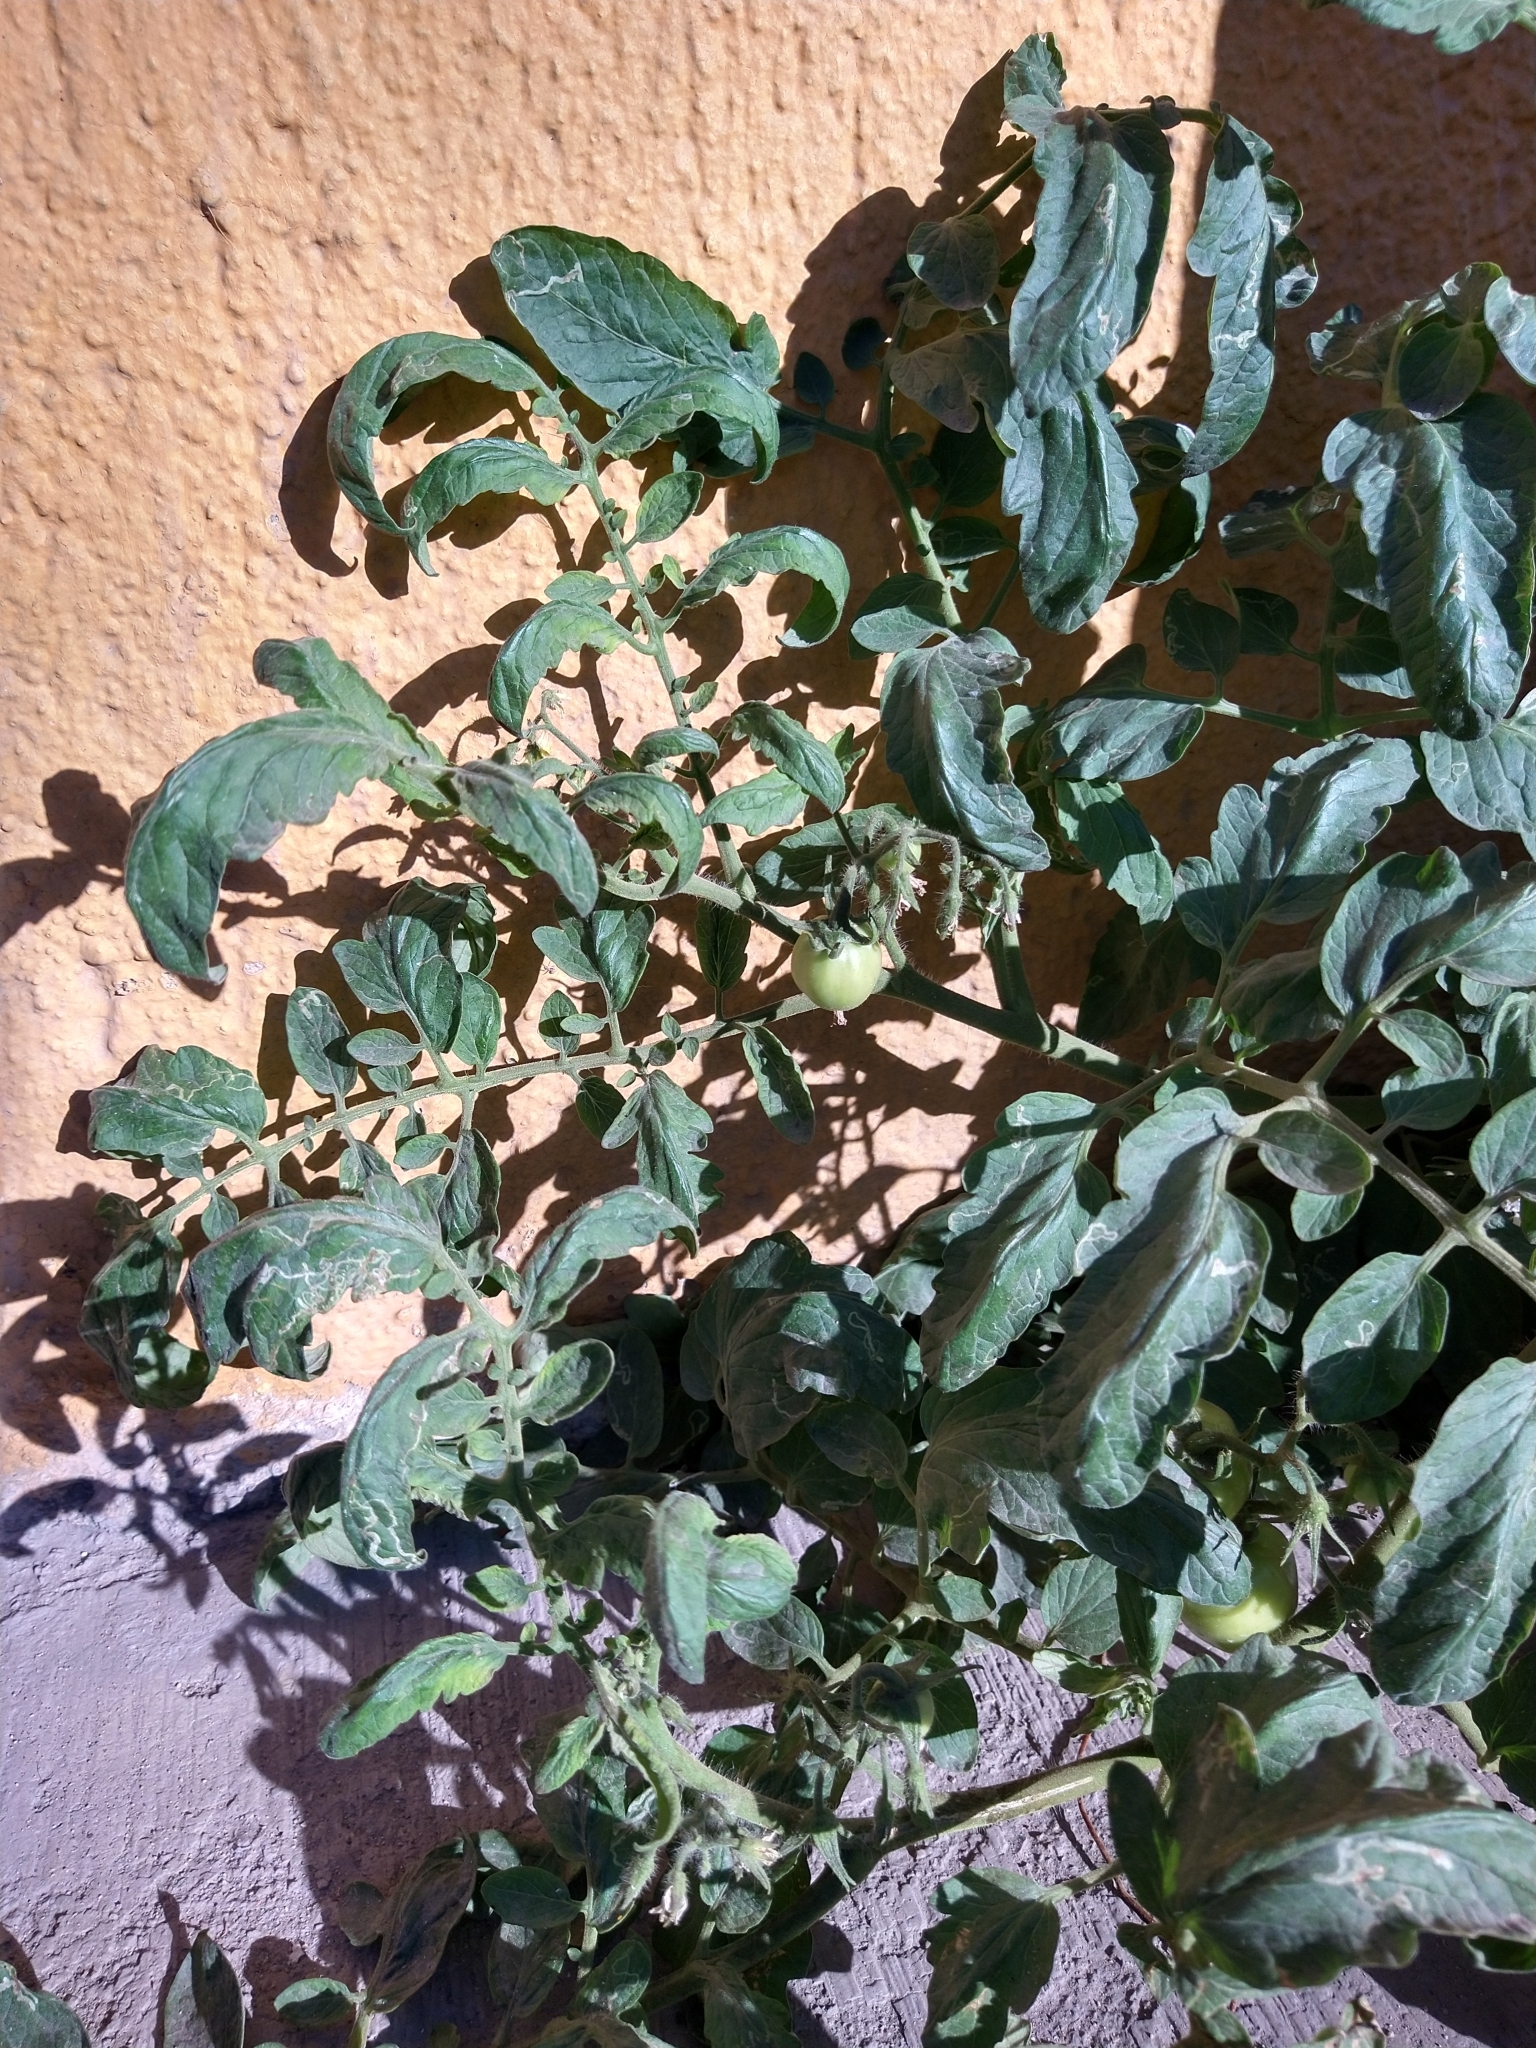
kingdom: Plantae
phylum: Tracheophyta
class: Magnoliopsida
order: Solanales
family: Solanaceae
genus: Solanum
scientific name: Solanum lycopersicum
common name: Garden tomato
